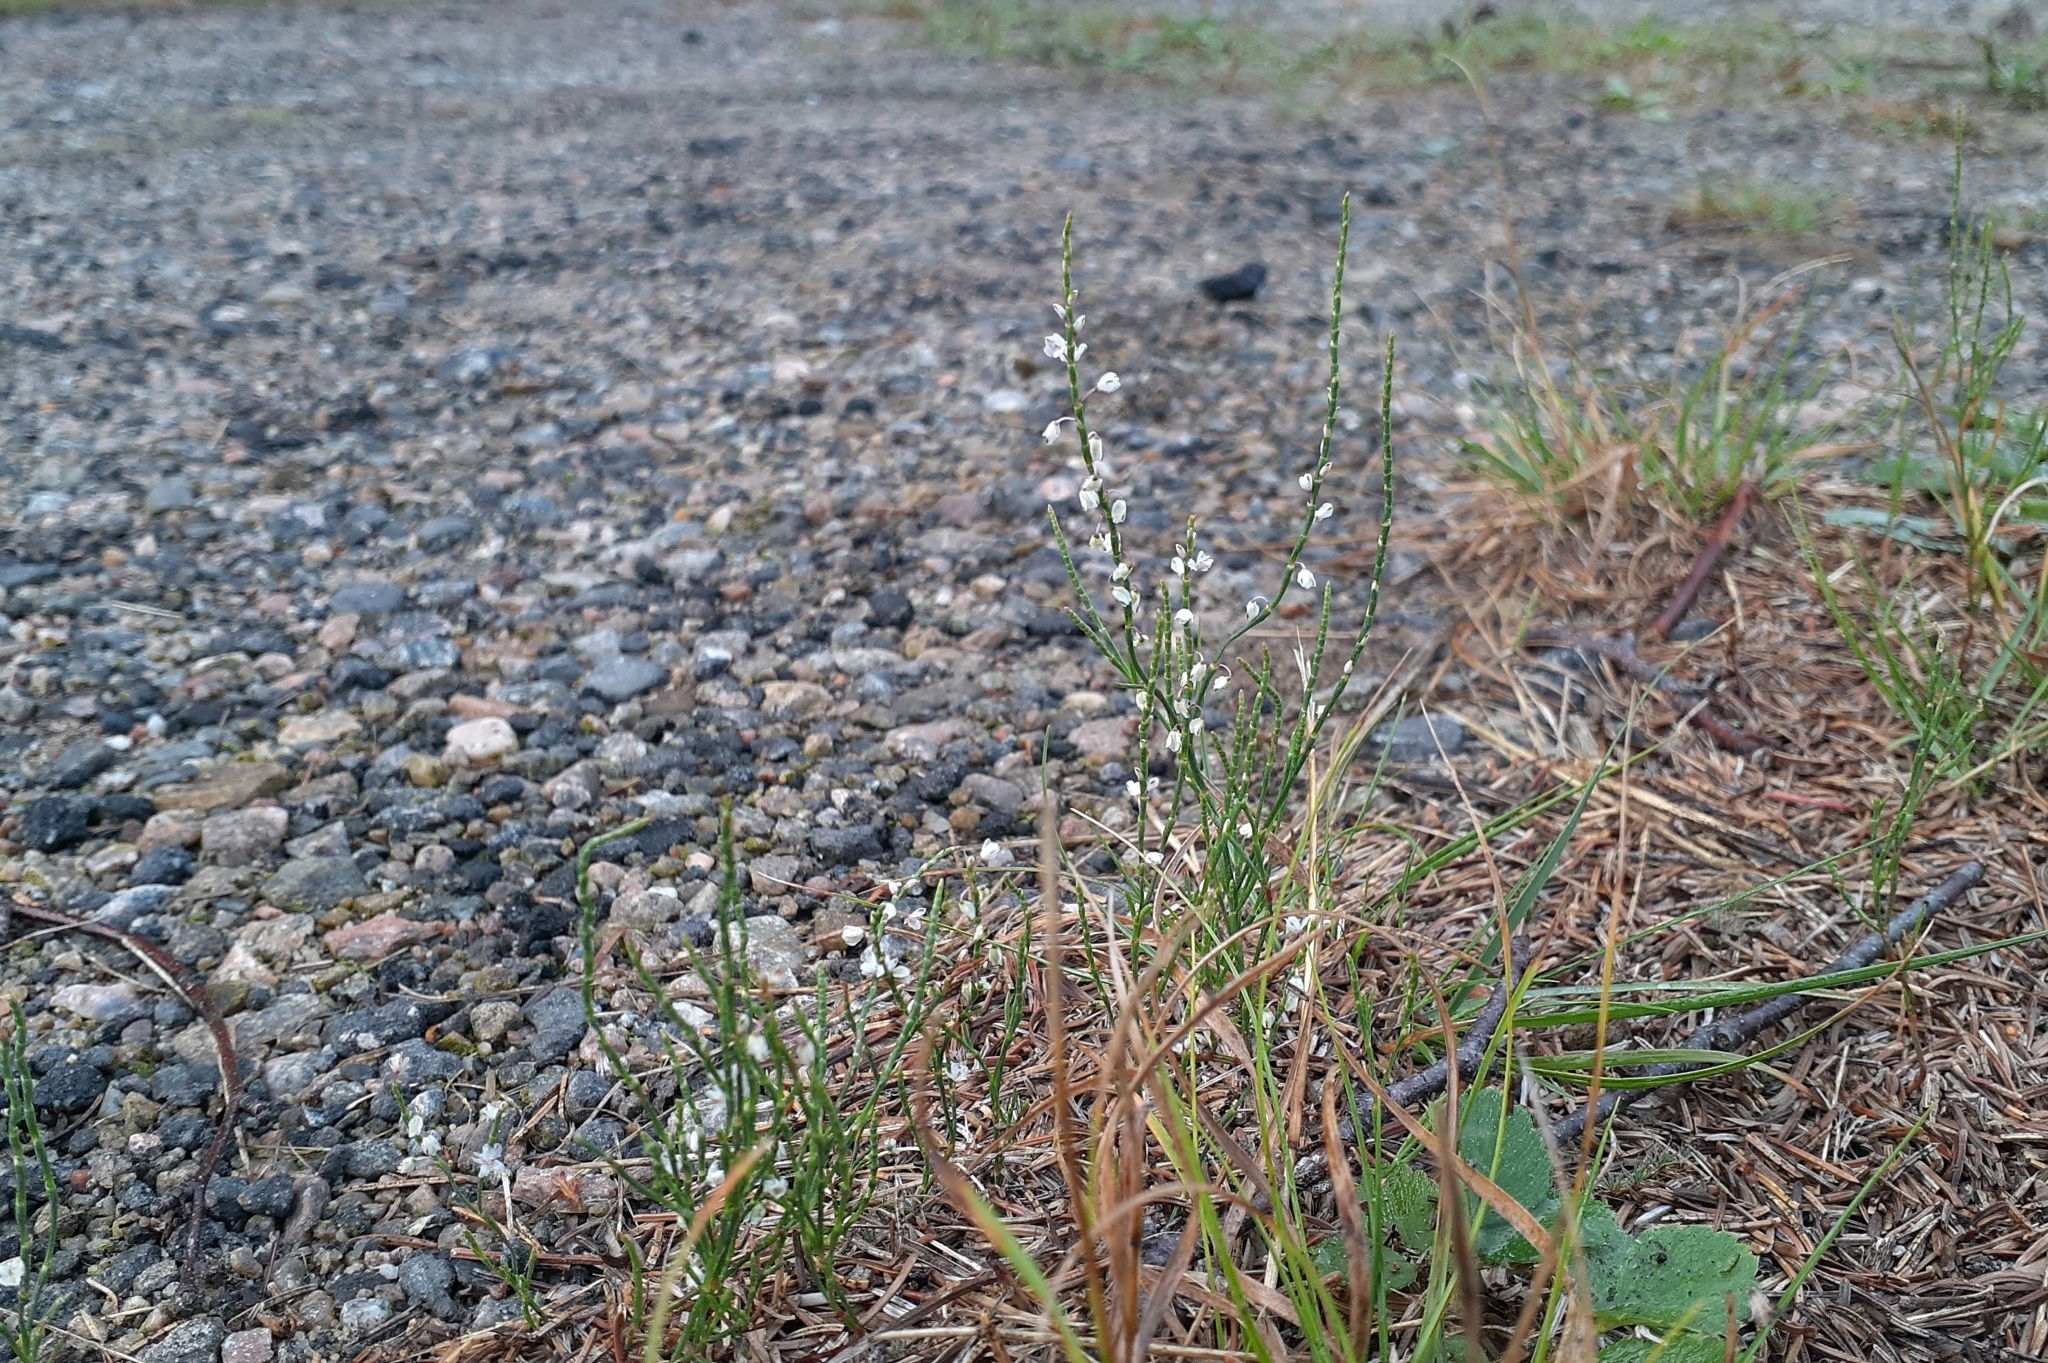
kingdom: Plantae
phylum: Tracheophyta
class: Magnoliopsida
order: Caryophyllales
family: Polygonaceae
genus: Polygonella
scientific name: Polygonella articulata
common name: Coastal jointweed
